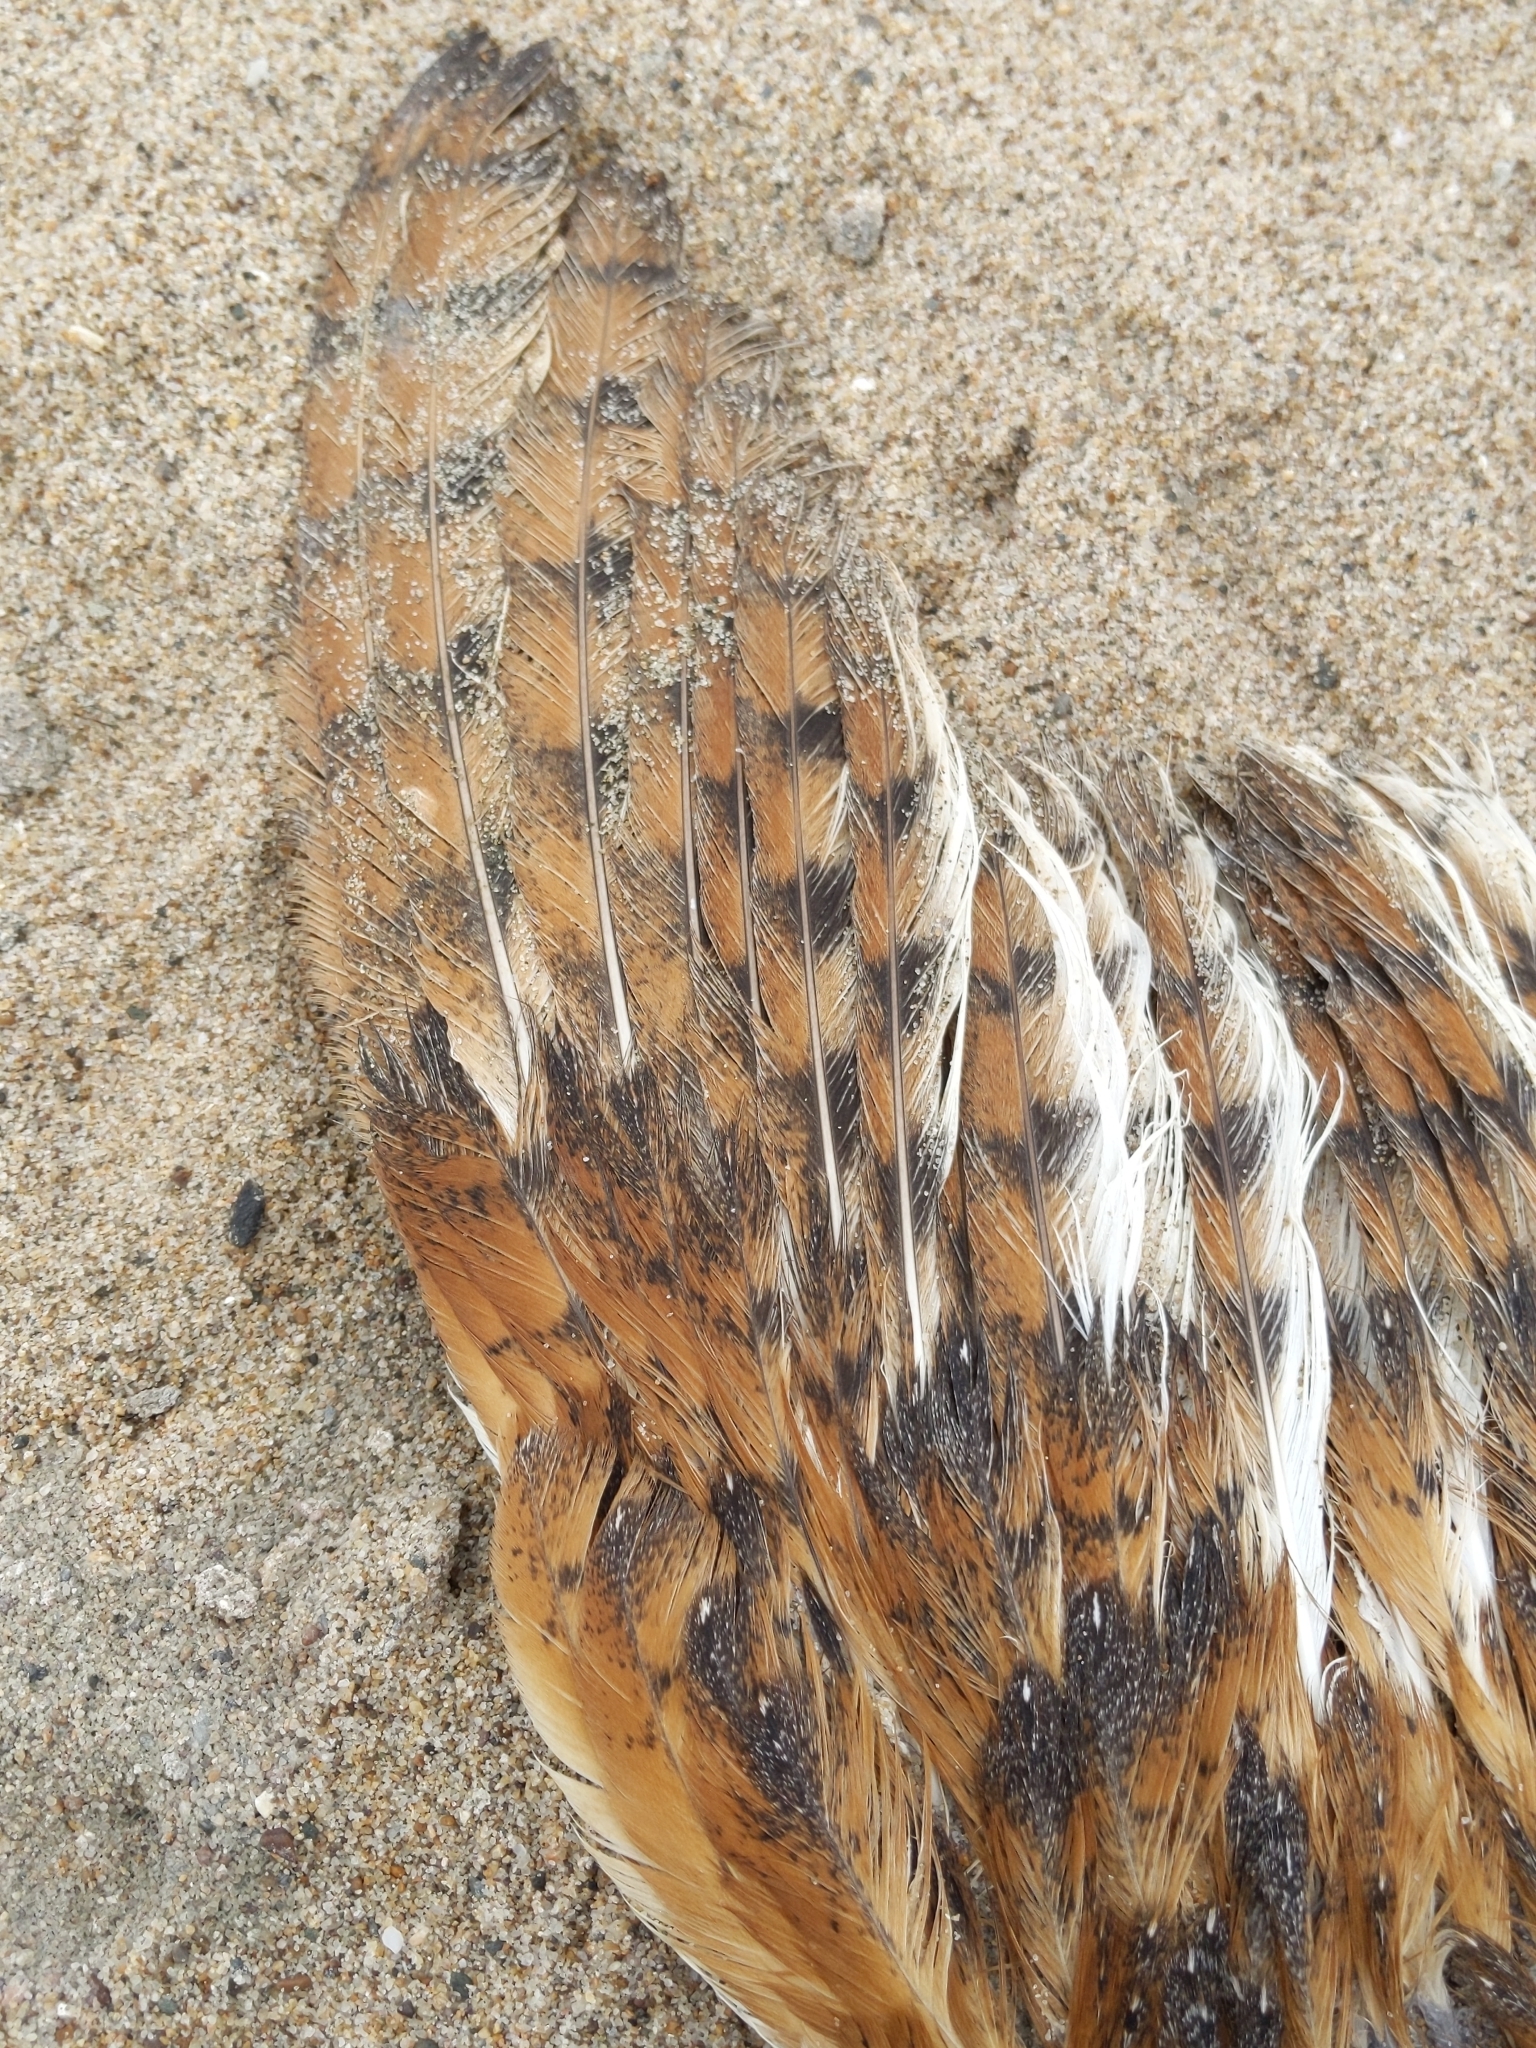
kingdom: Animalia
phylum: Chordata
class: Aves
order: Strigiformes
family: Tytonidae
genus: Tyto
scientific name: Tyto alba
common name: Barn owl
